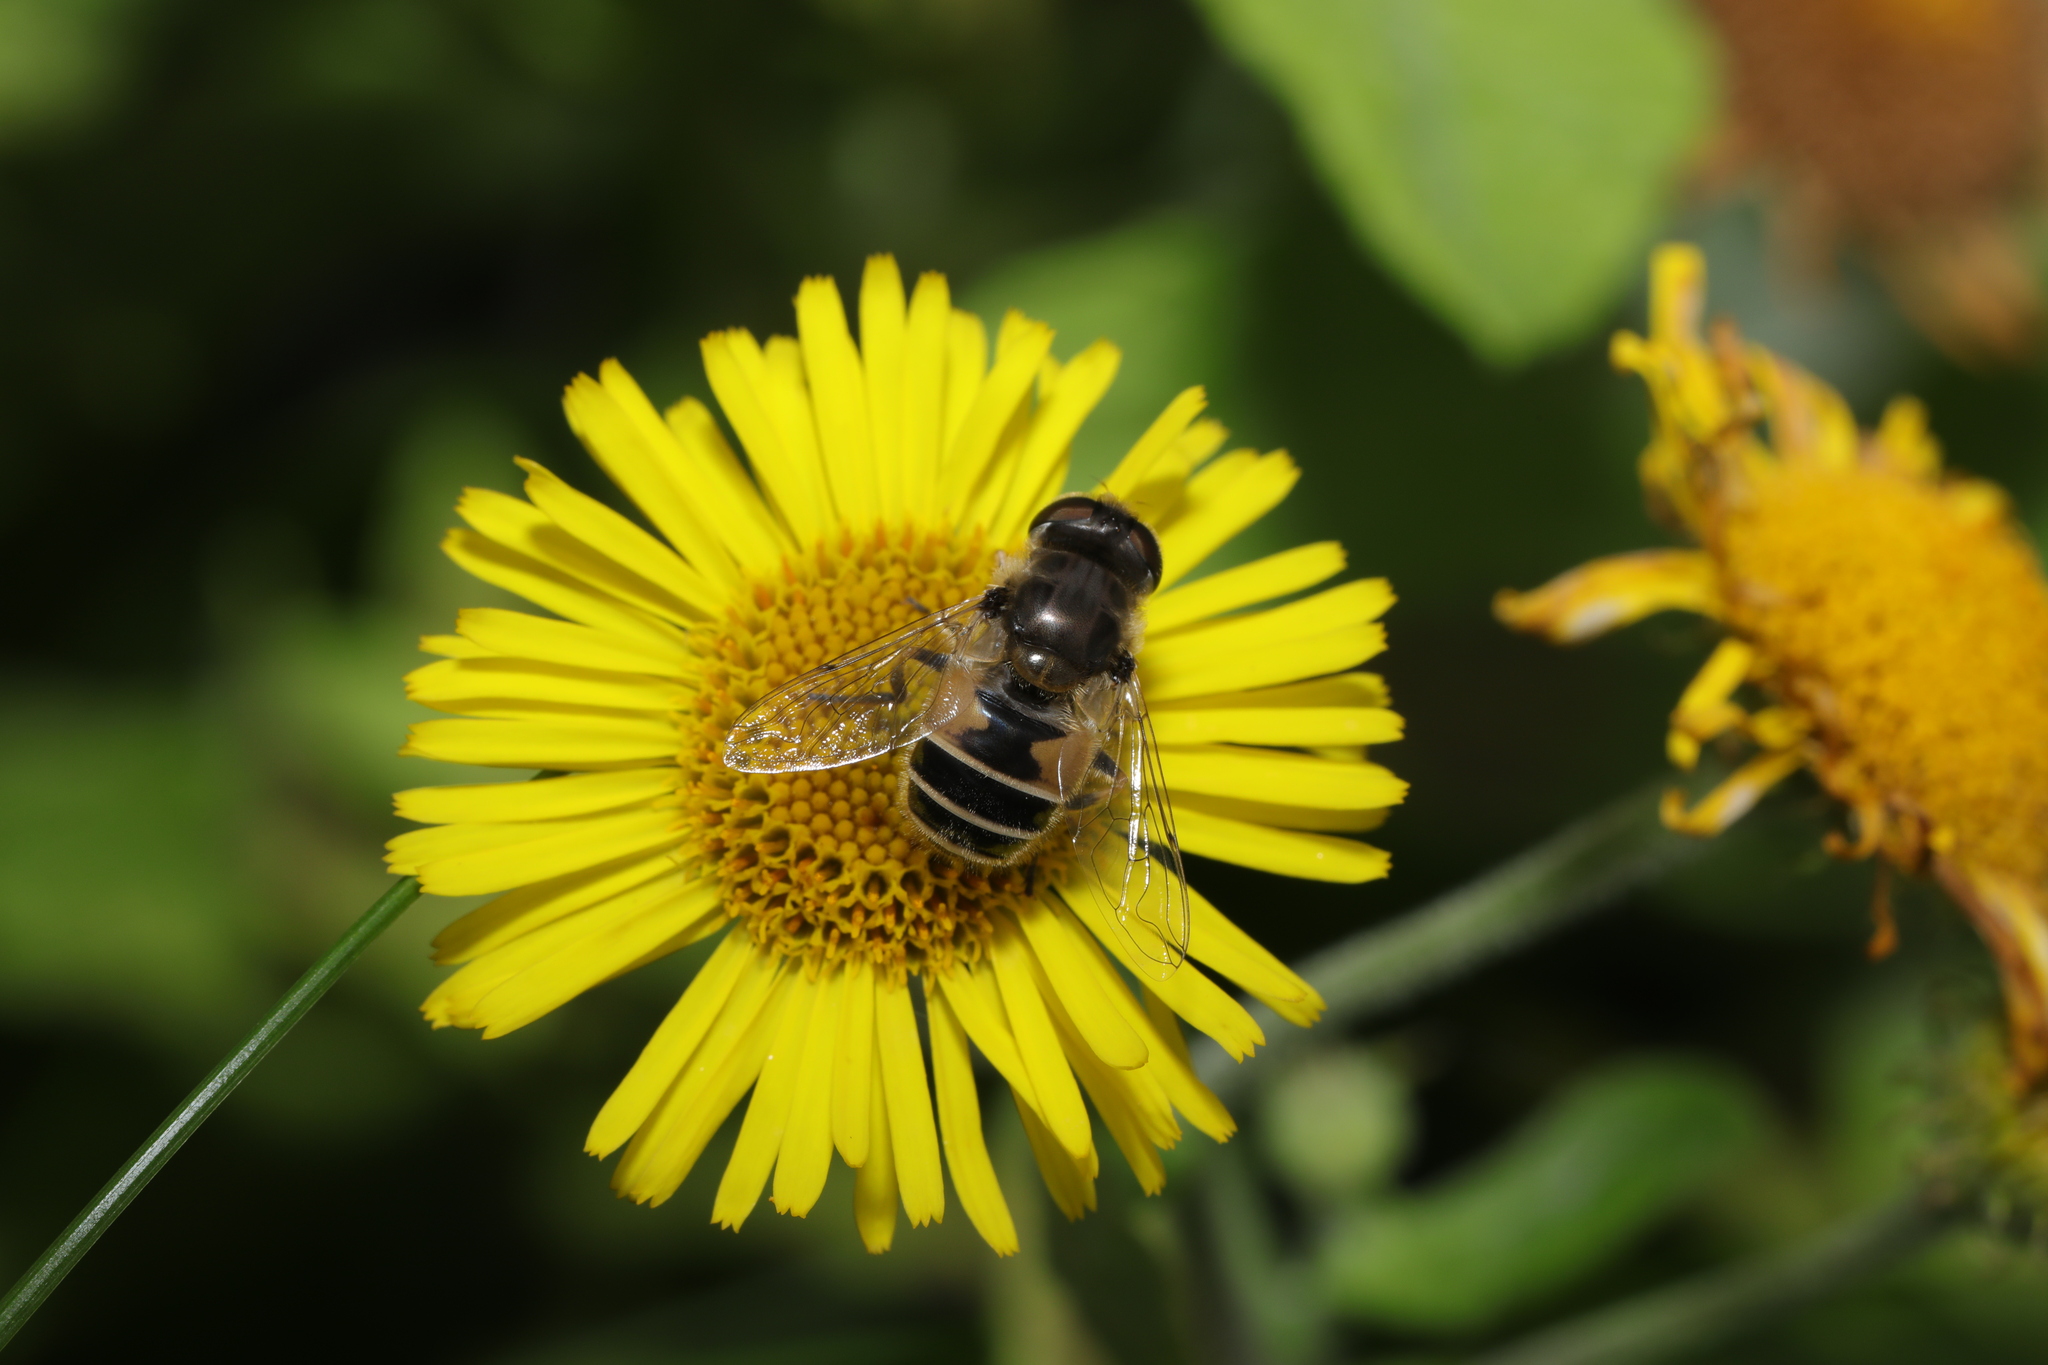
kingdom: Animalia
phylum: Arthropoda
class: Insecta
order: Diptera
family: Syrphidae
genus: Eoseristalis
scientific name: Eoseristalis
